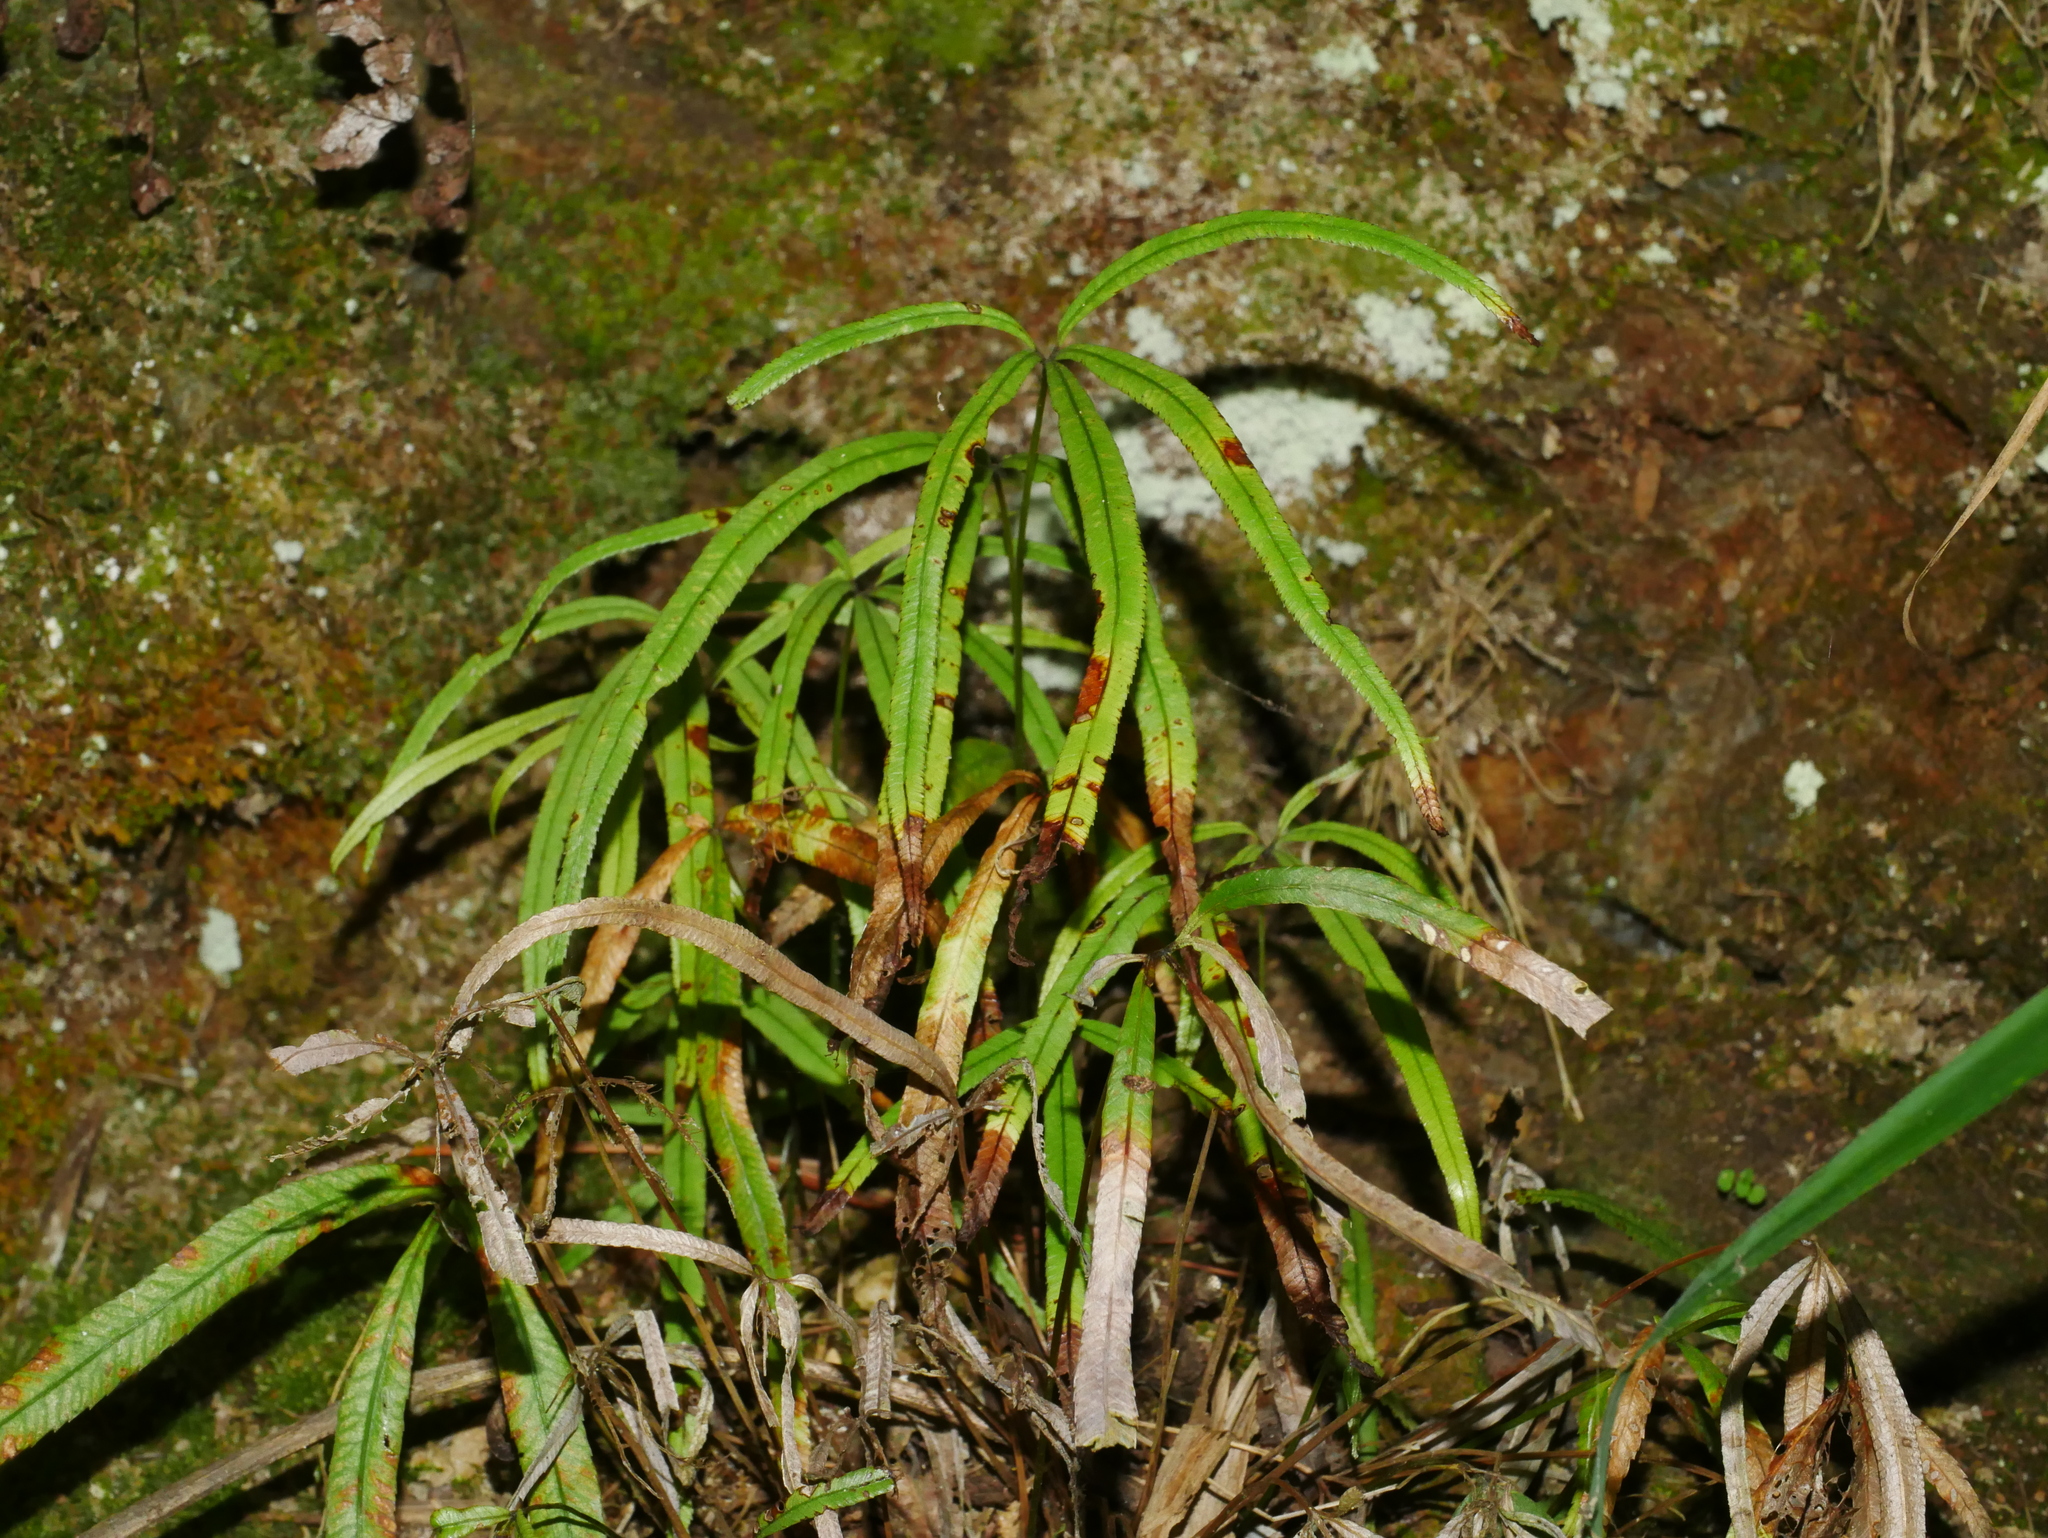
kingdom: Plantae
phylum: Tracheophyta
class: Polypodiopsida
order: Polypodiales
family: Pteridaceae
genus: Pteris
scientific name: Pteris dactylina
